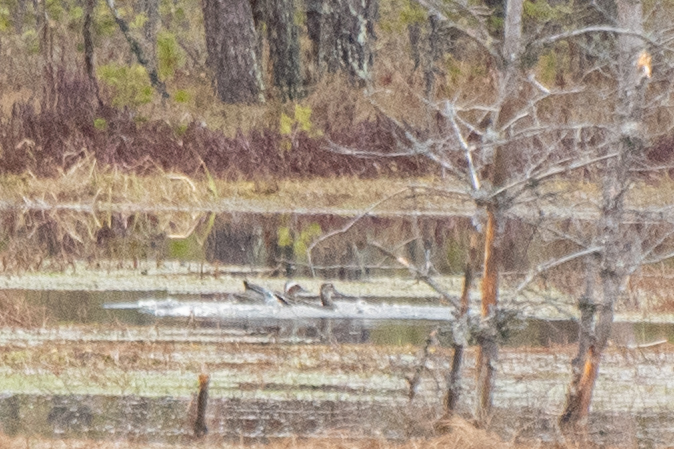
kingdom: Animalia
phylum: Chordata
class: Aves
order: Anseriformes
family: Anatidae
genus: Spatula
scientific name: Spatula querquedula
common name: Garganey
